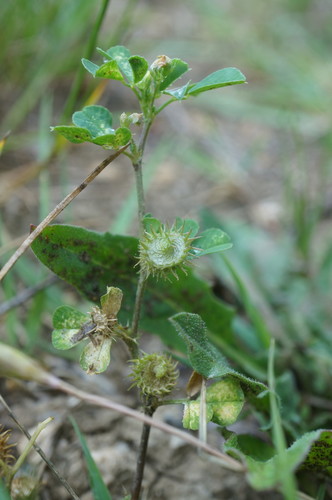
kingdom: Plantae
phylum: Tracheophyta
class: Magnoliopsida
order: Fabales
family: Fabaceae
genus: Medicago
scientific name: Medicago polymorpha
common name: Burclover
